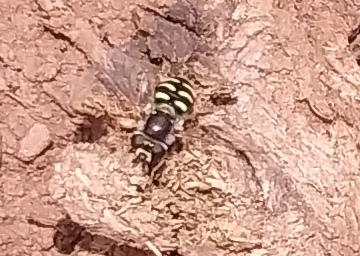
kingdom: Animalia
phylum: Arthropoda
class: Insecta
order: Diptera
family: Syrphidae
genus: Eupeodes
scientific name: Eupeodes volucris
